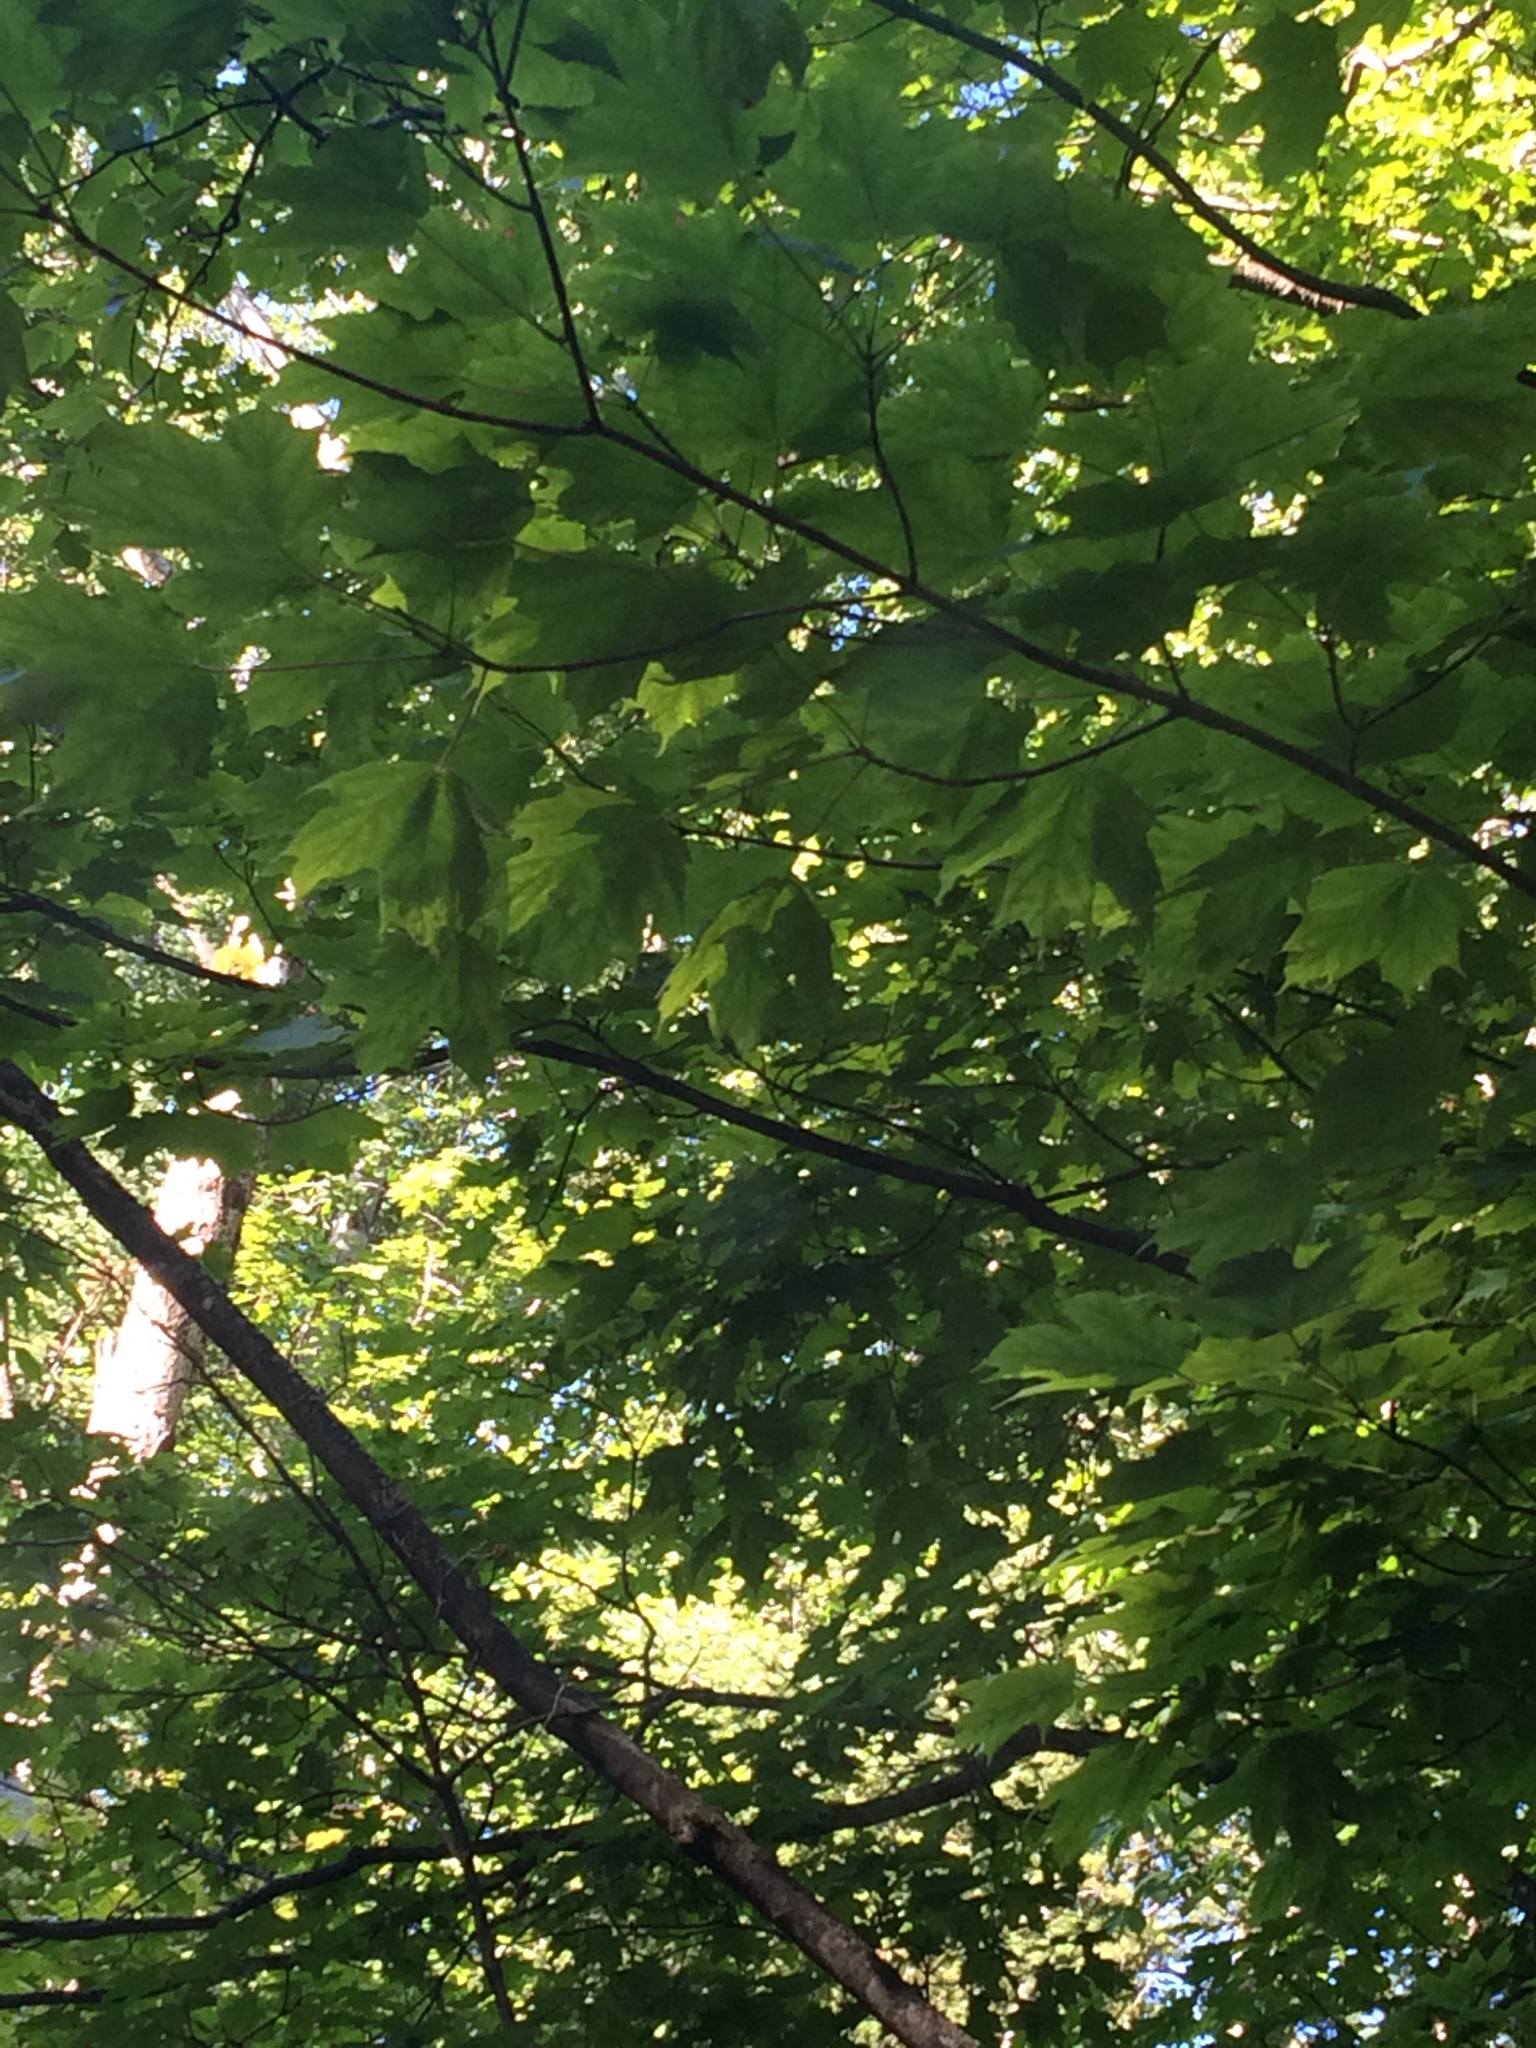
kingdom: Plantae
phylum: Tracheophyta
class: Magnoliopsida
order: Sapindales
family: Sapindaceae
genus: Acer
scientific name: Acer saccharum
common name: Sugar maple
